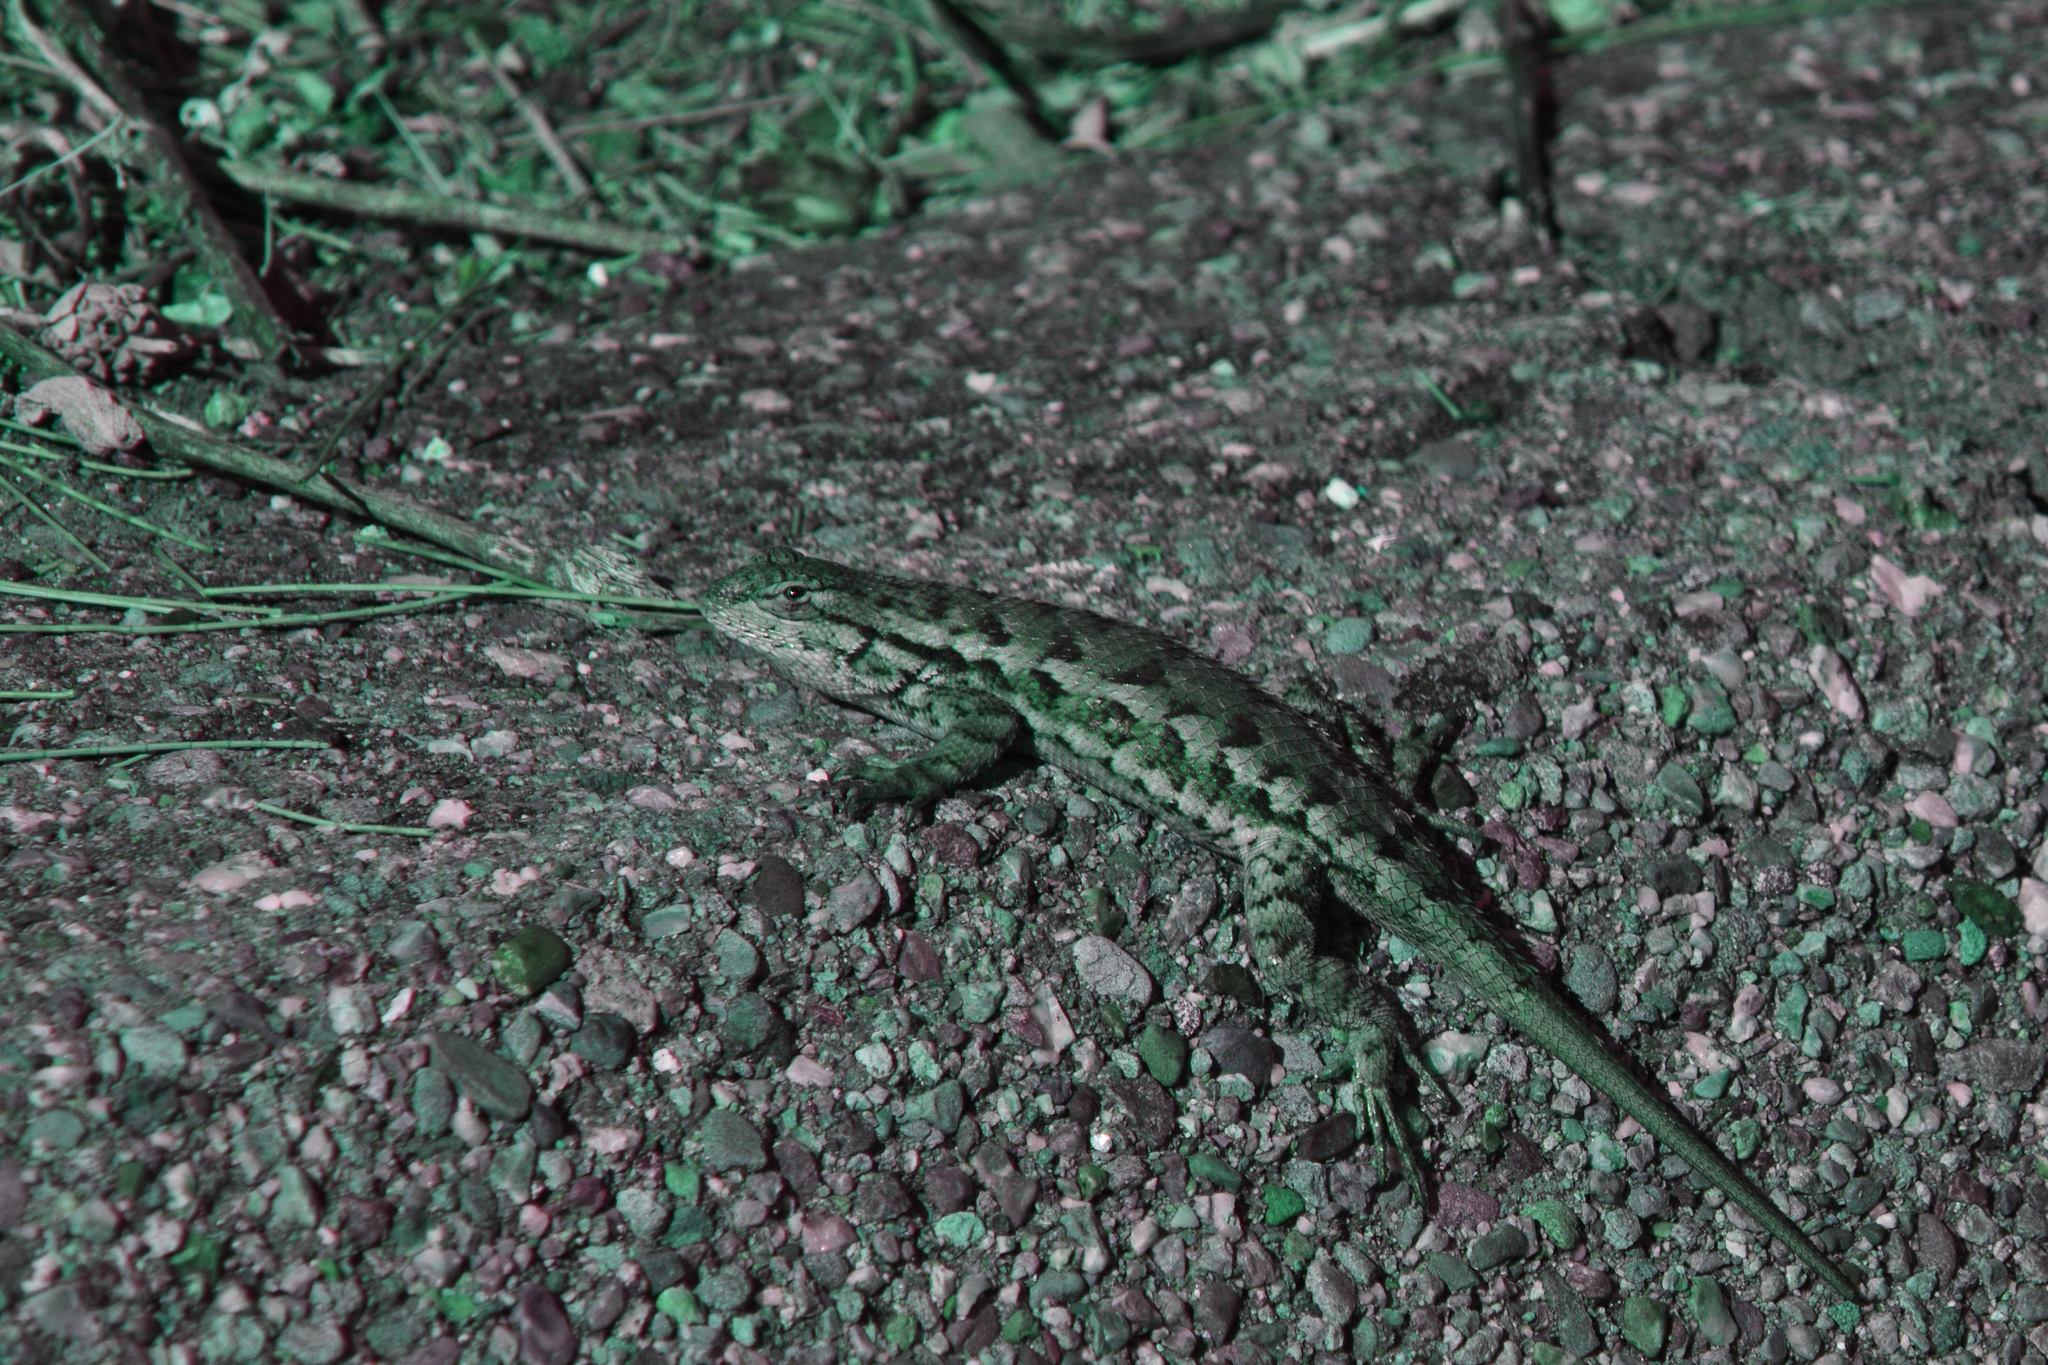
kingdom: Animalia
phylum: Chordata
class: Squamata
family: Phrynosomatidae
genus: Sceloporus
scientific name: Sceloporus occidentalis
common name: Western fence lizard
